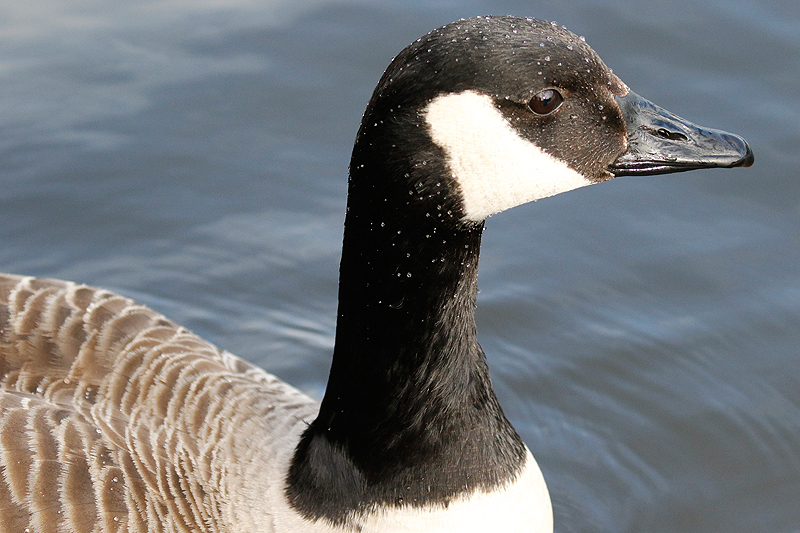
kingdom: Animalia
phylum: Chordata
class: Aves
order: Anseriformes
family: Anatidae
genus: Branta
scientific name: Branta canadensis
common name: Canada goose
